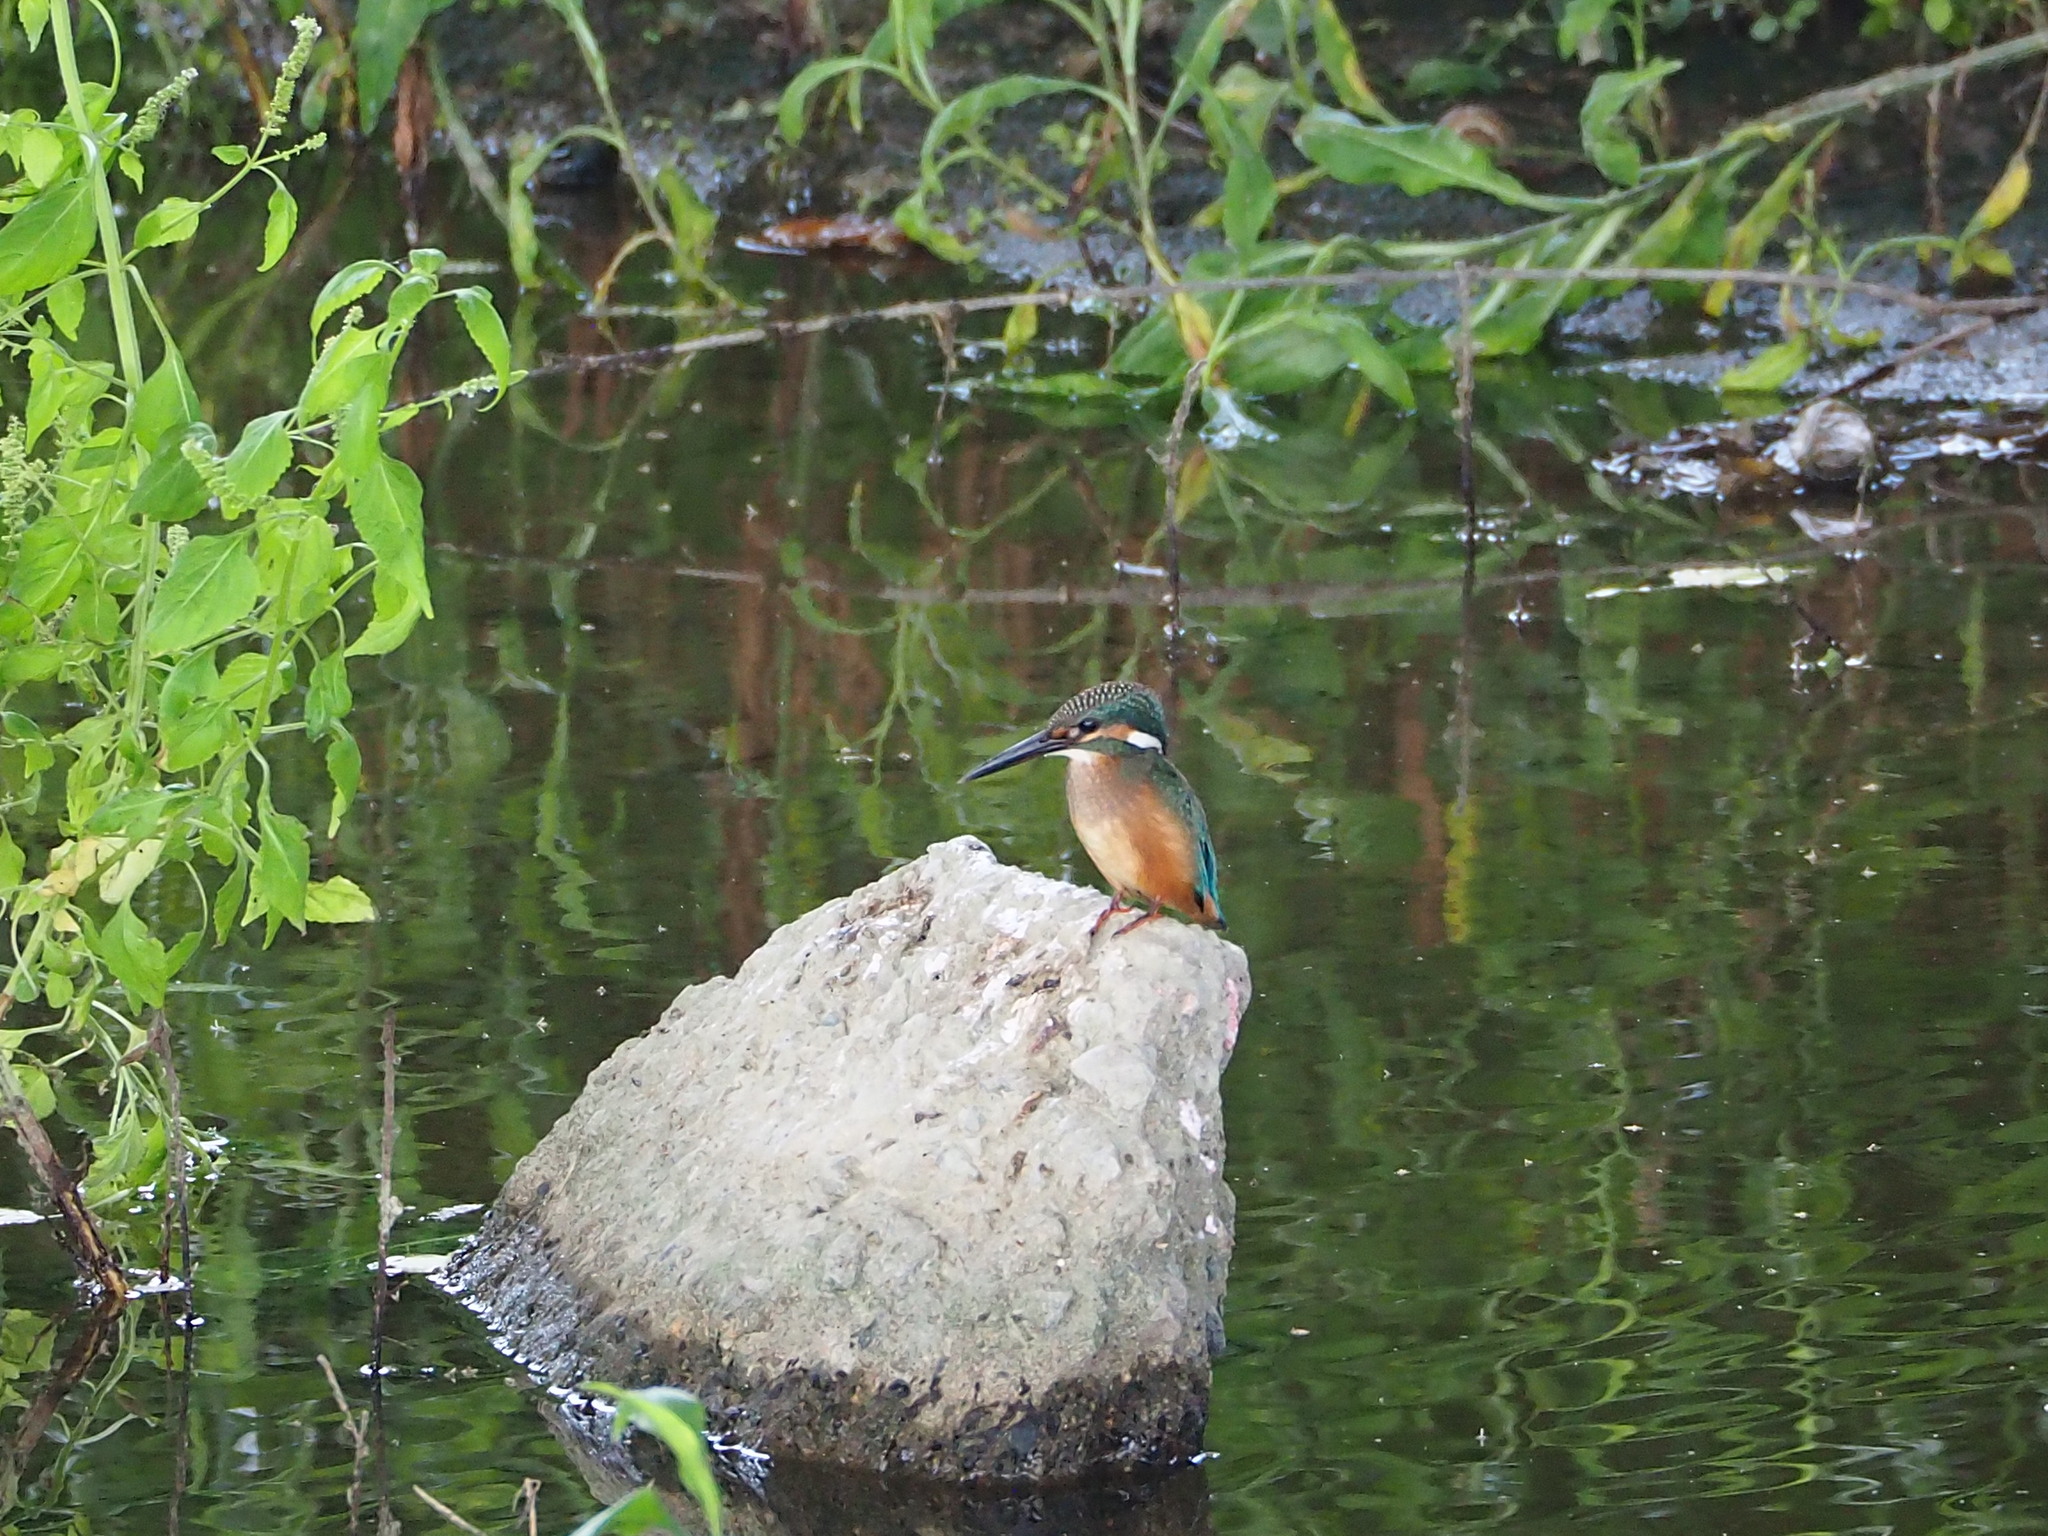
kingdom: Animalia
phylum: Chordata
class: Aves
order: Coraciiformes
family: Alcedinidae
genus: Alcedo
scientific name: Alcedo atthis
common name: Common kingfisher
